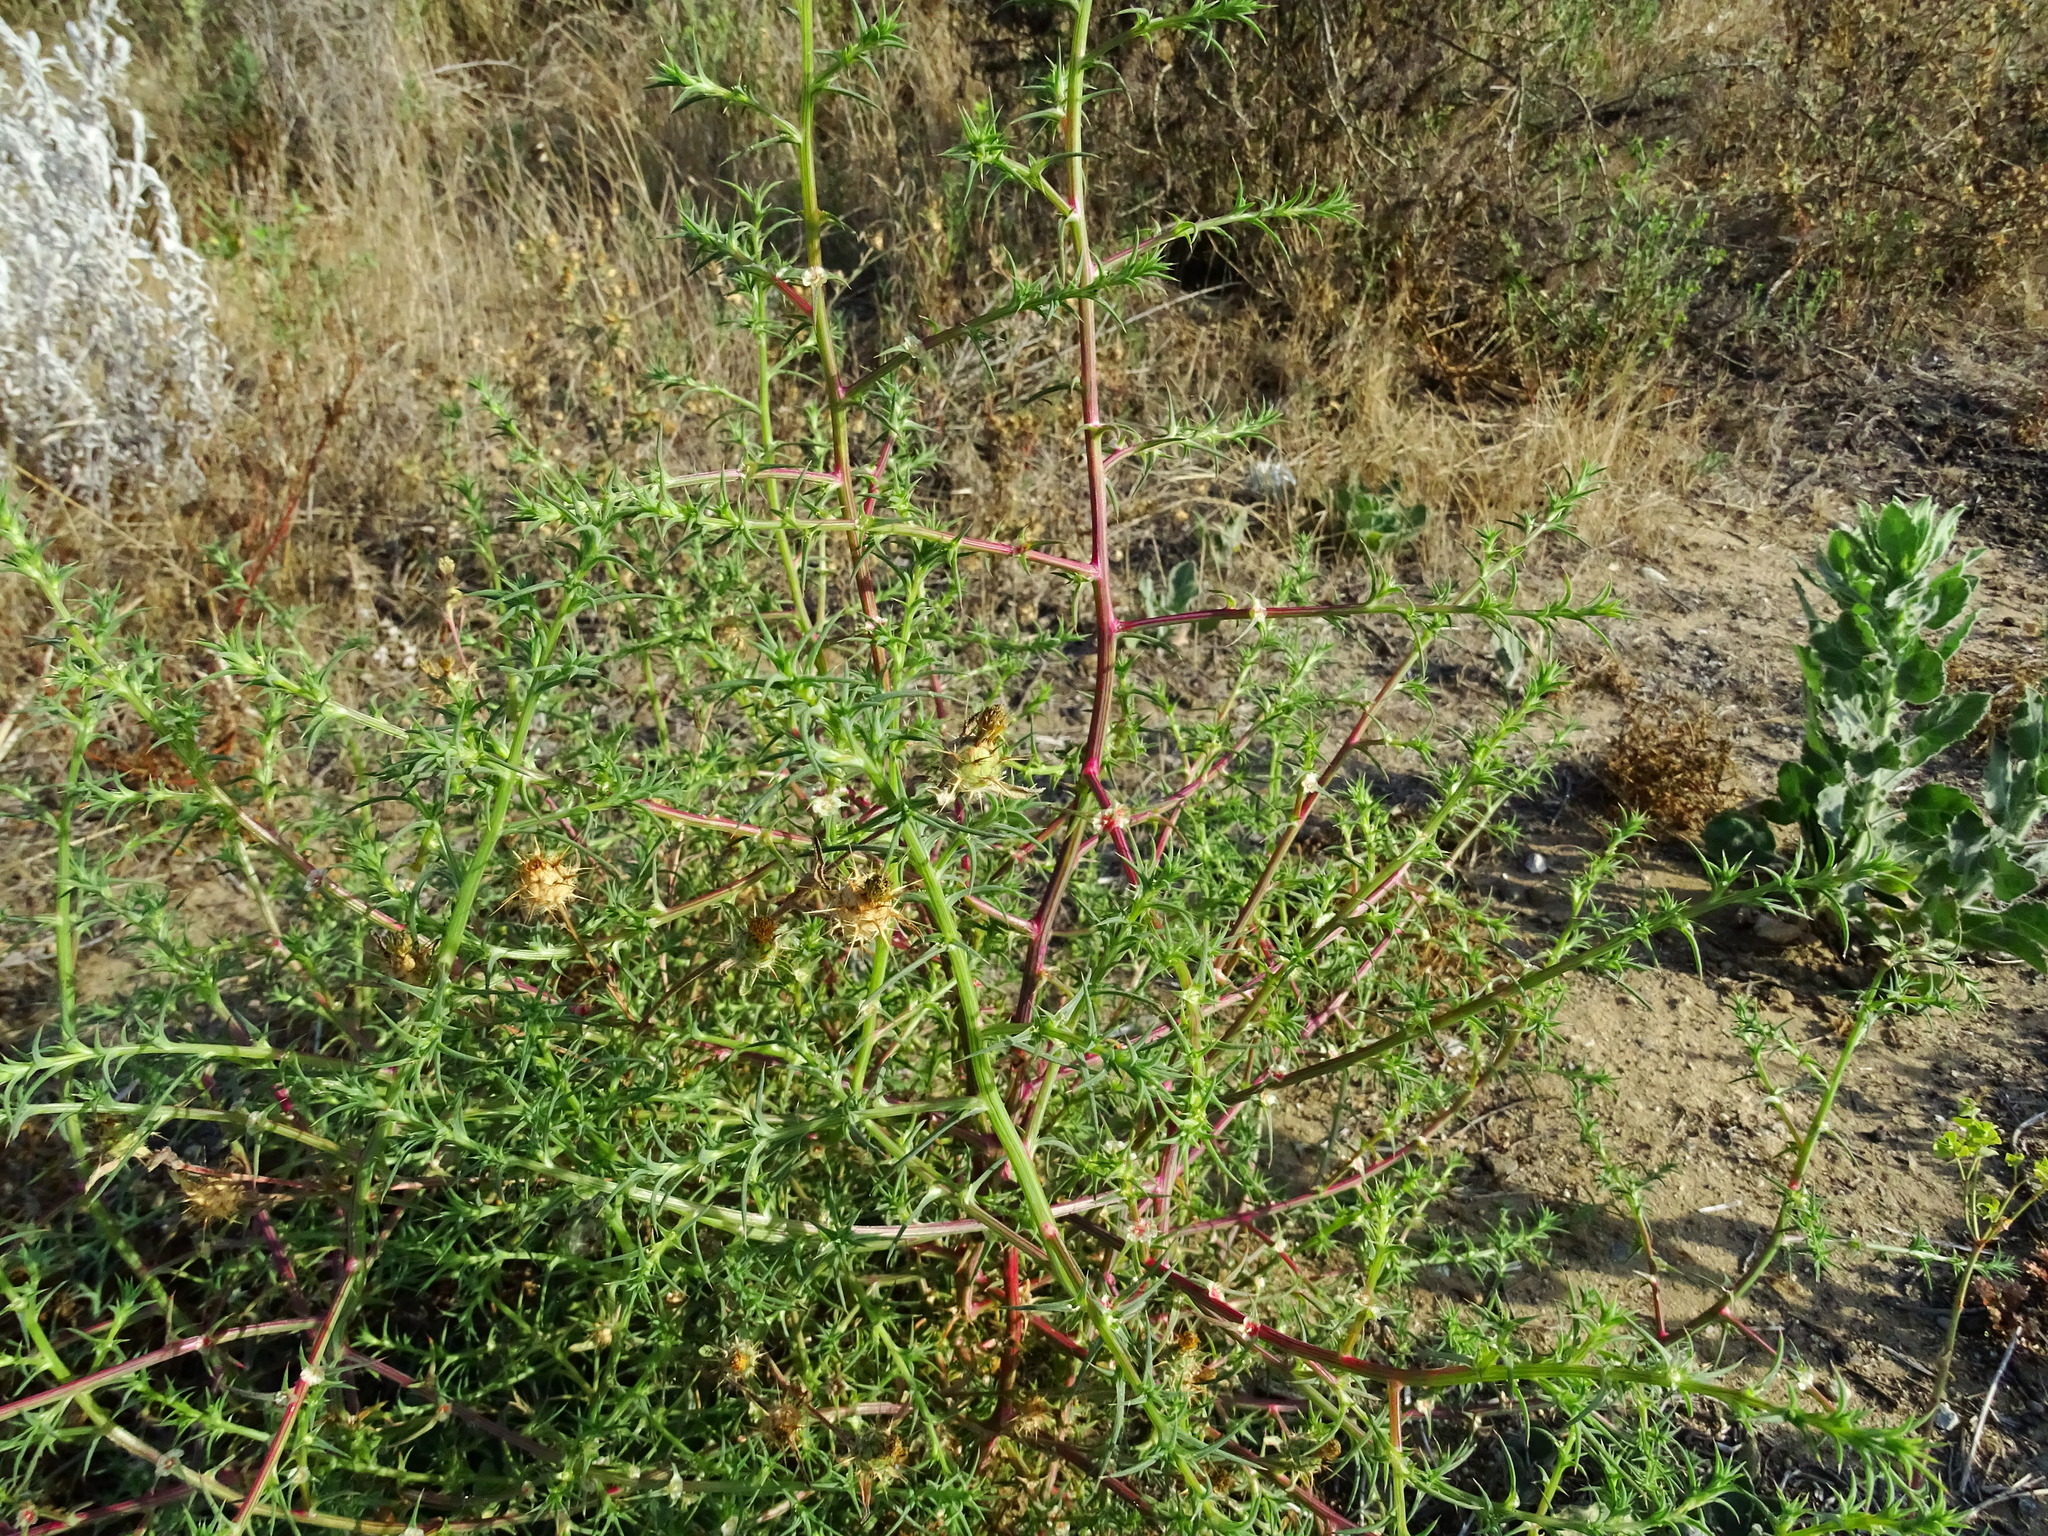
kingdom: Plantae
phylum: Tracheophyta
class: Magnoliopsida
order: Asterales
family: Asteraceae
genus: Centaurea
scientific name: Centaurea melitensis
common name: Maltese star-thistle
